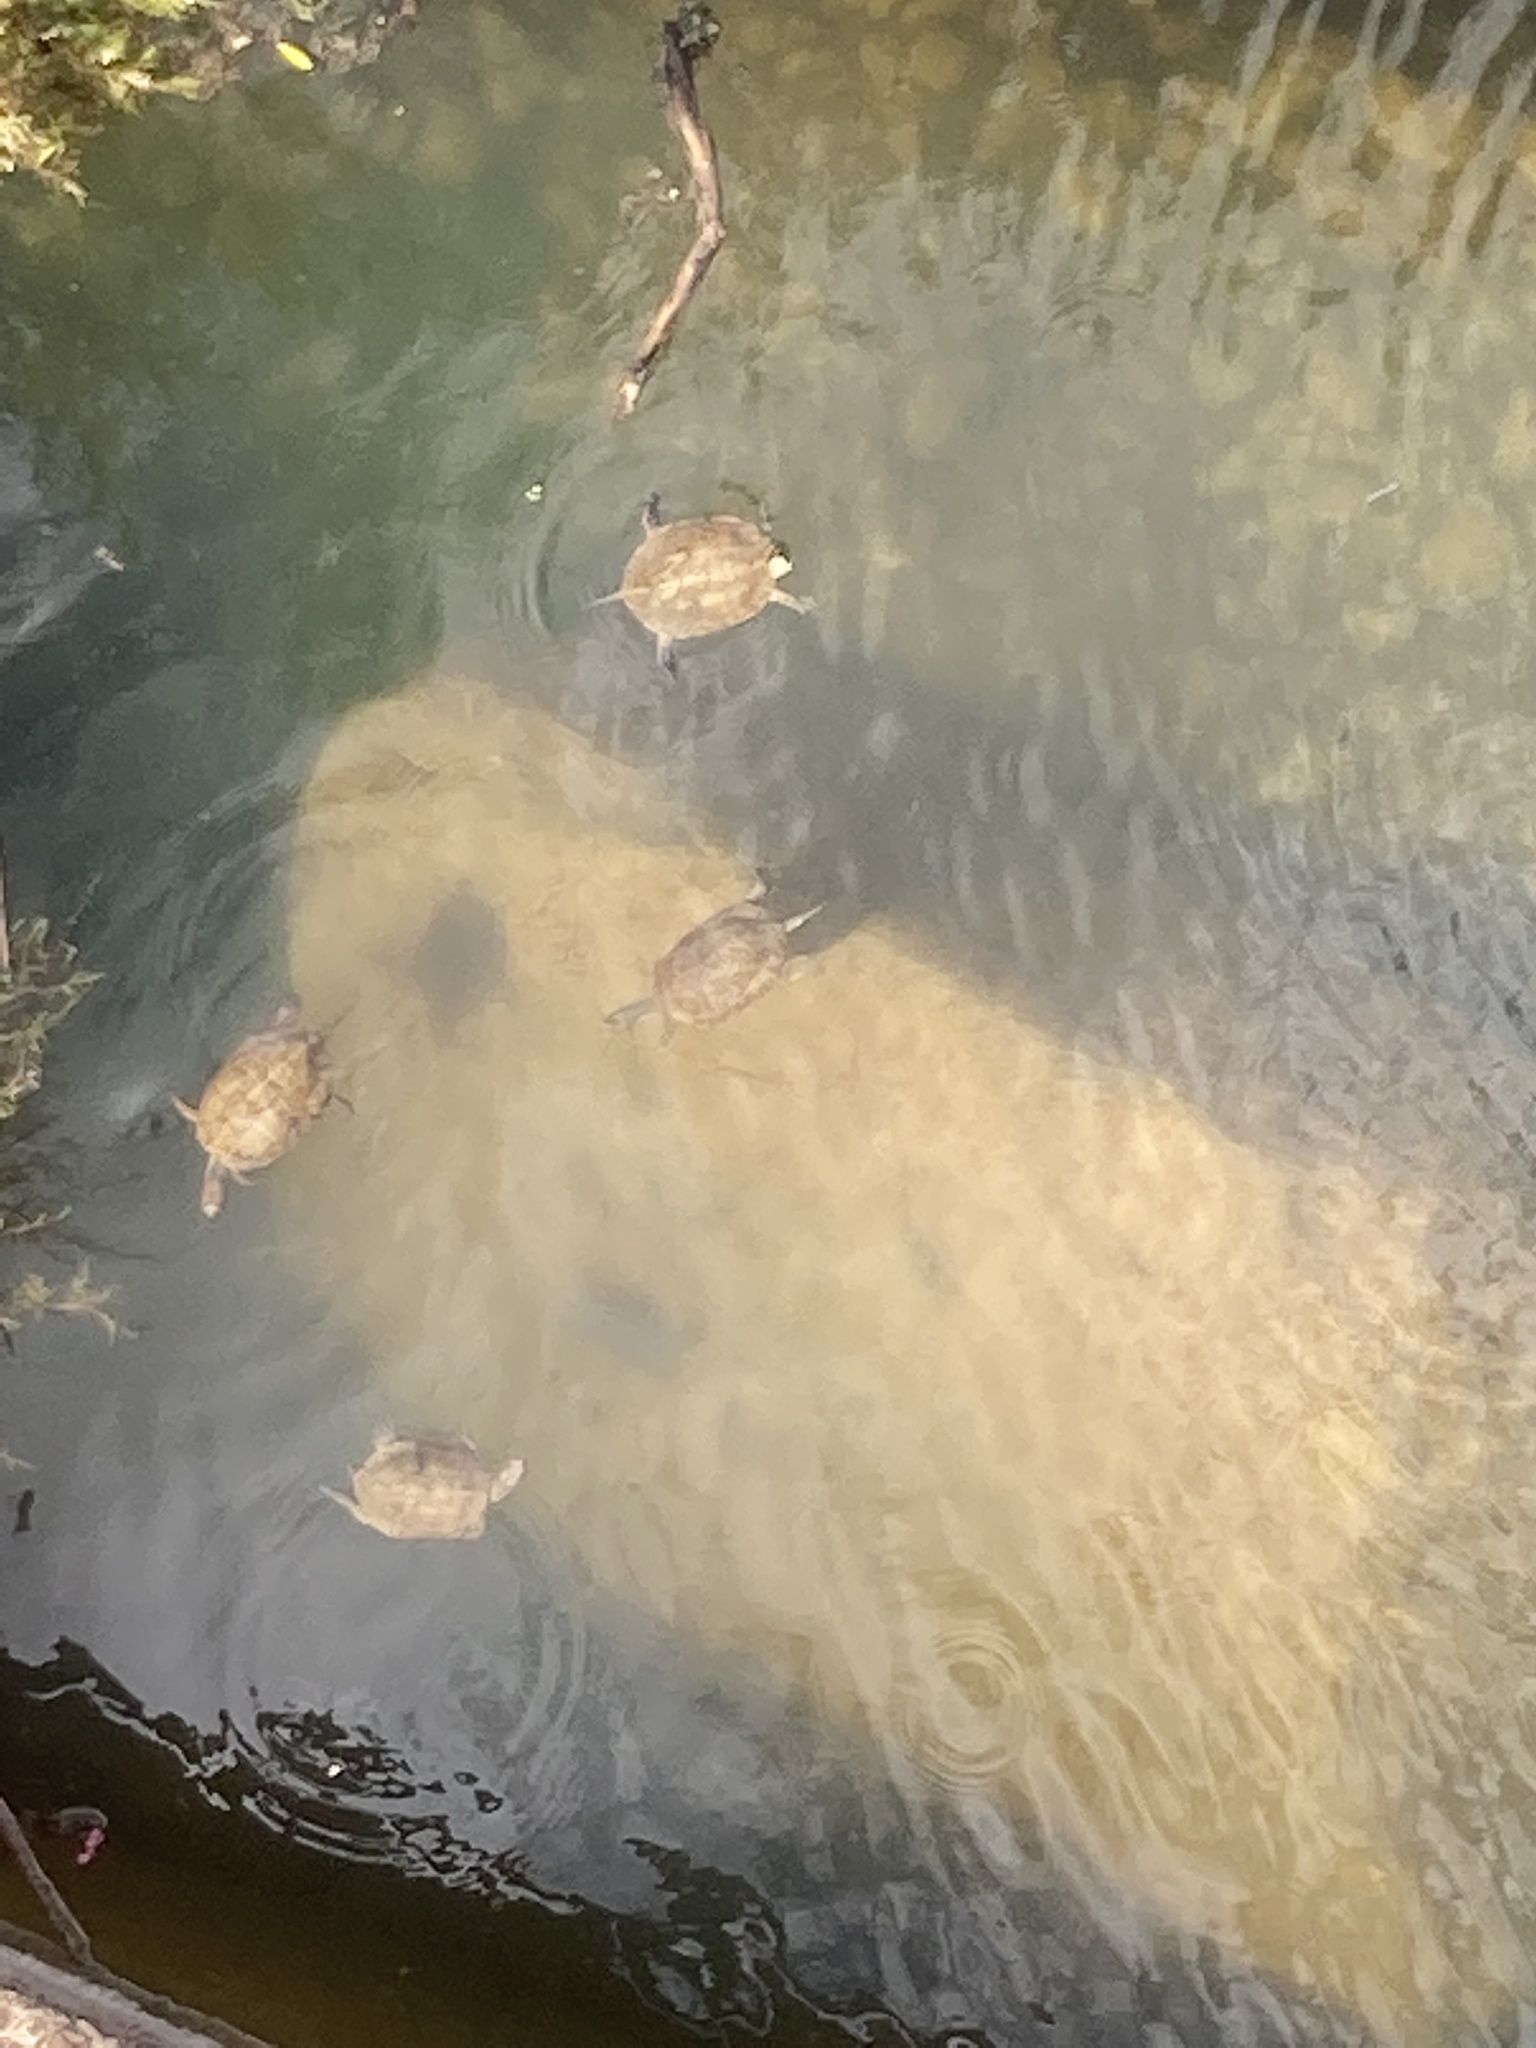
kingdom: Animalia
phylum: Chordata
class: Testudines
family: Geoemydidae
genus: Mauremys
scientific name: Mauremys leprosa
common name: Mediterranean pond turtle
